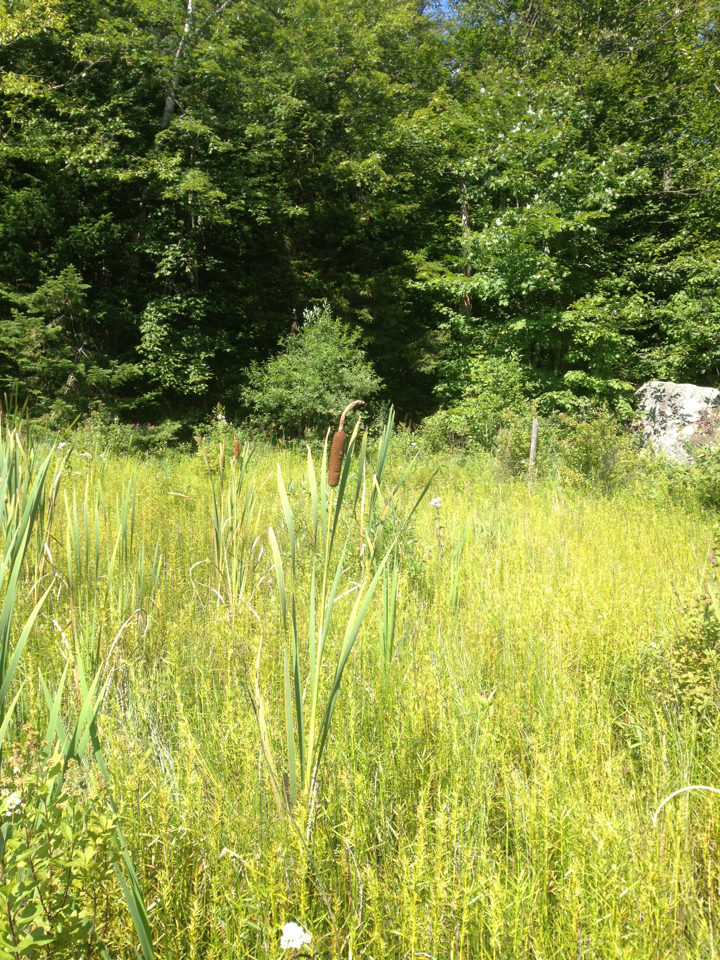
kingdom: Plantae
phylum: Tracheophyta
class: Liliopsida
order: Poales
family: Typhaceae
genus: Typha
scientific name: Typha latifolia
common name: Broadleaf cattail
